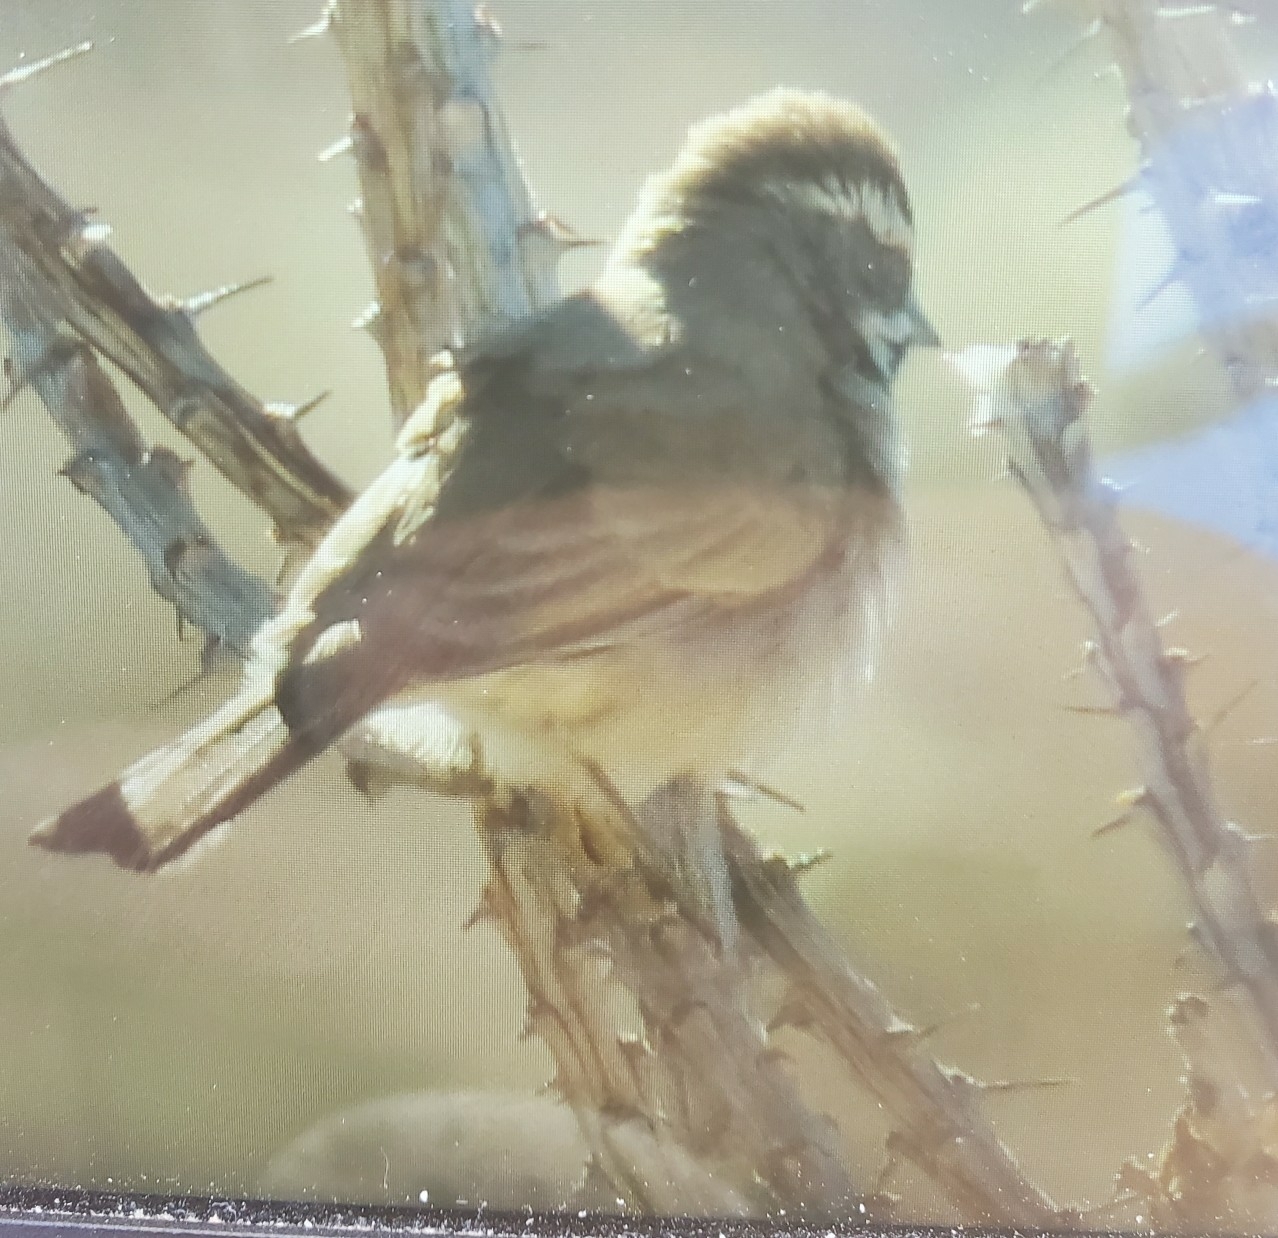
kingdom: Animalia
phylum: Chordata
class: Aves
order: Passeriformes
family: Passerellidae
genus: Amphispiza
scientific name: Amphispiza bilineata
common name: Black-throated sparrow
